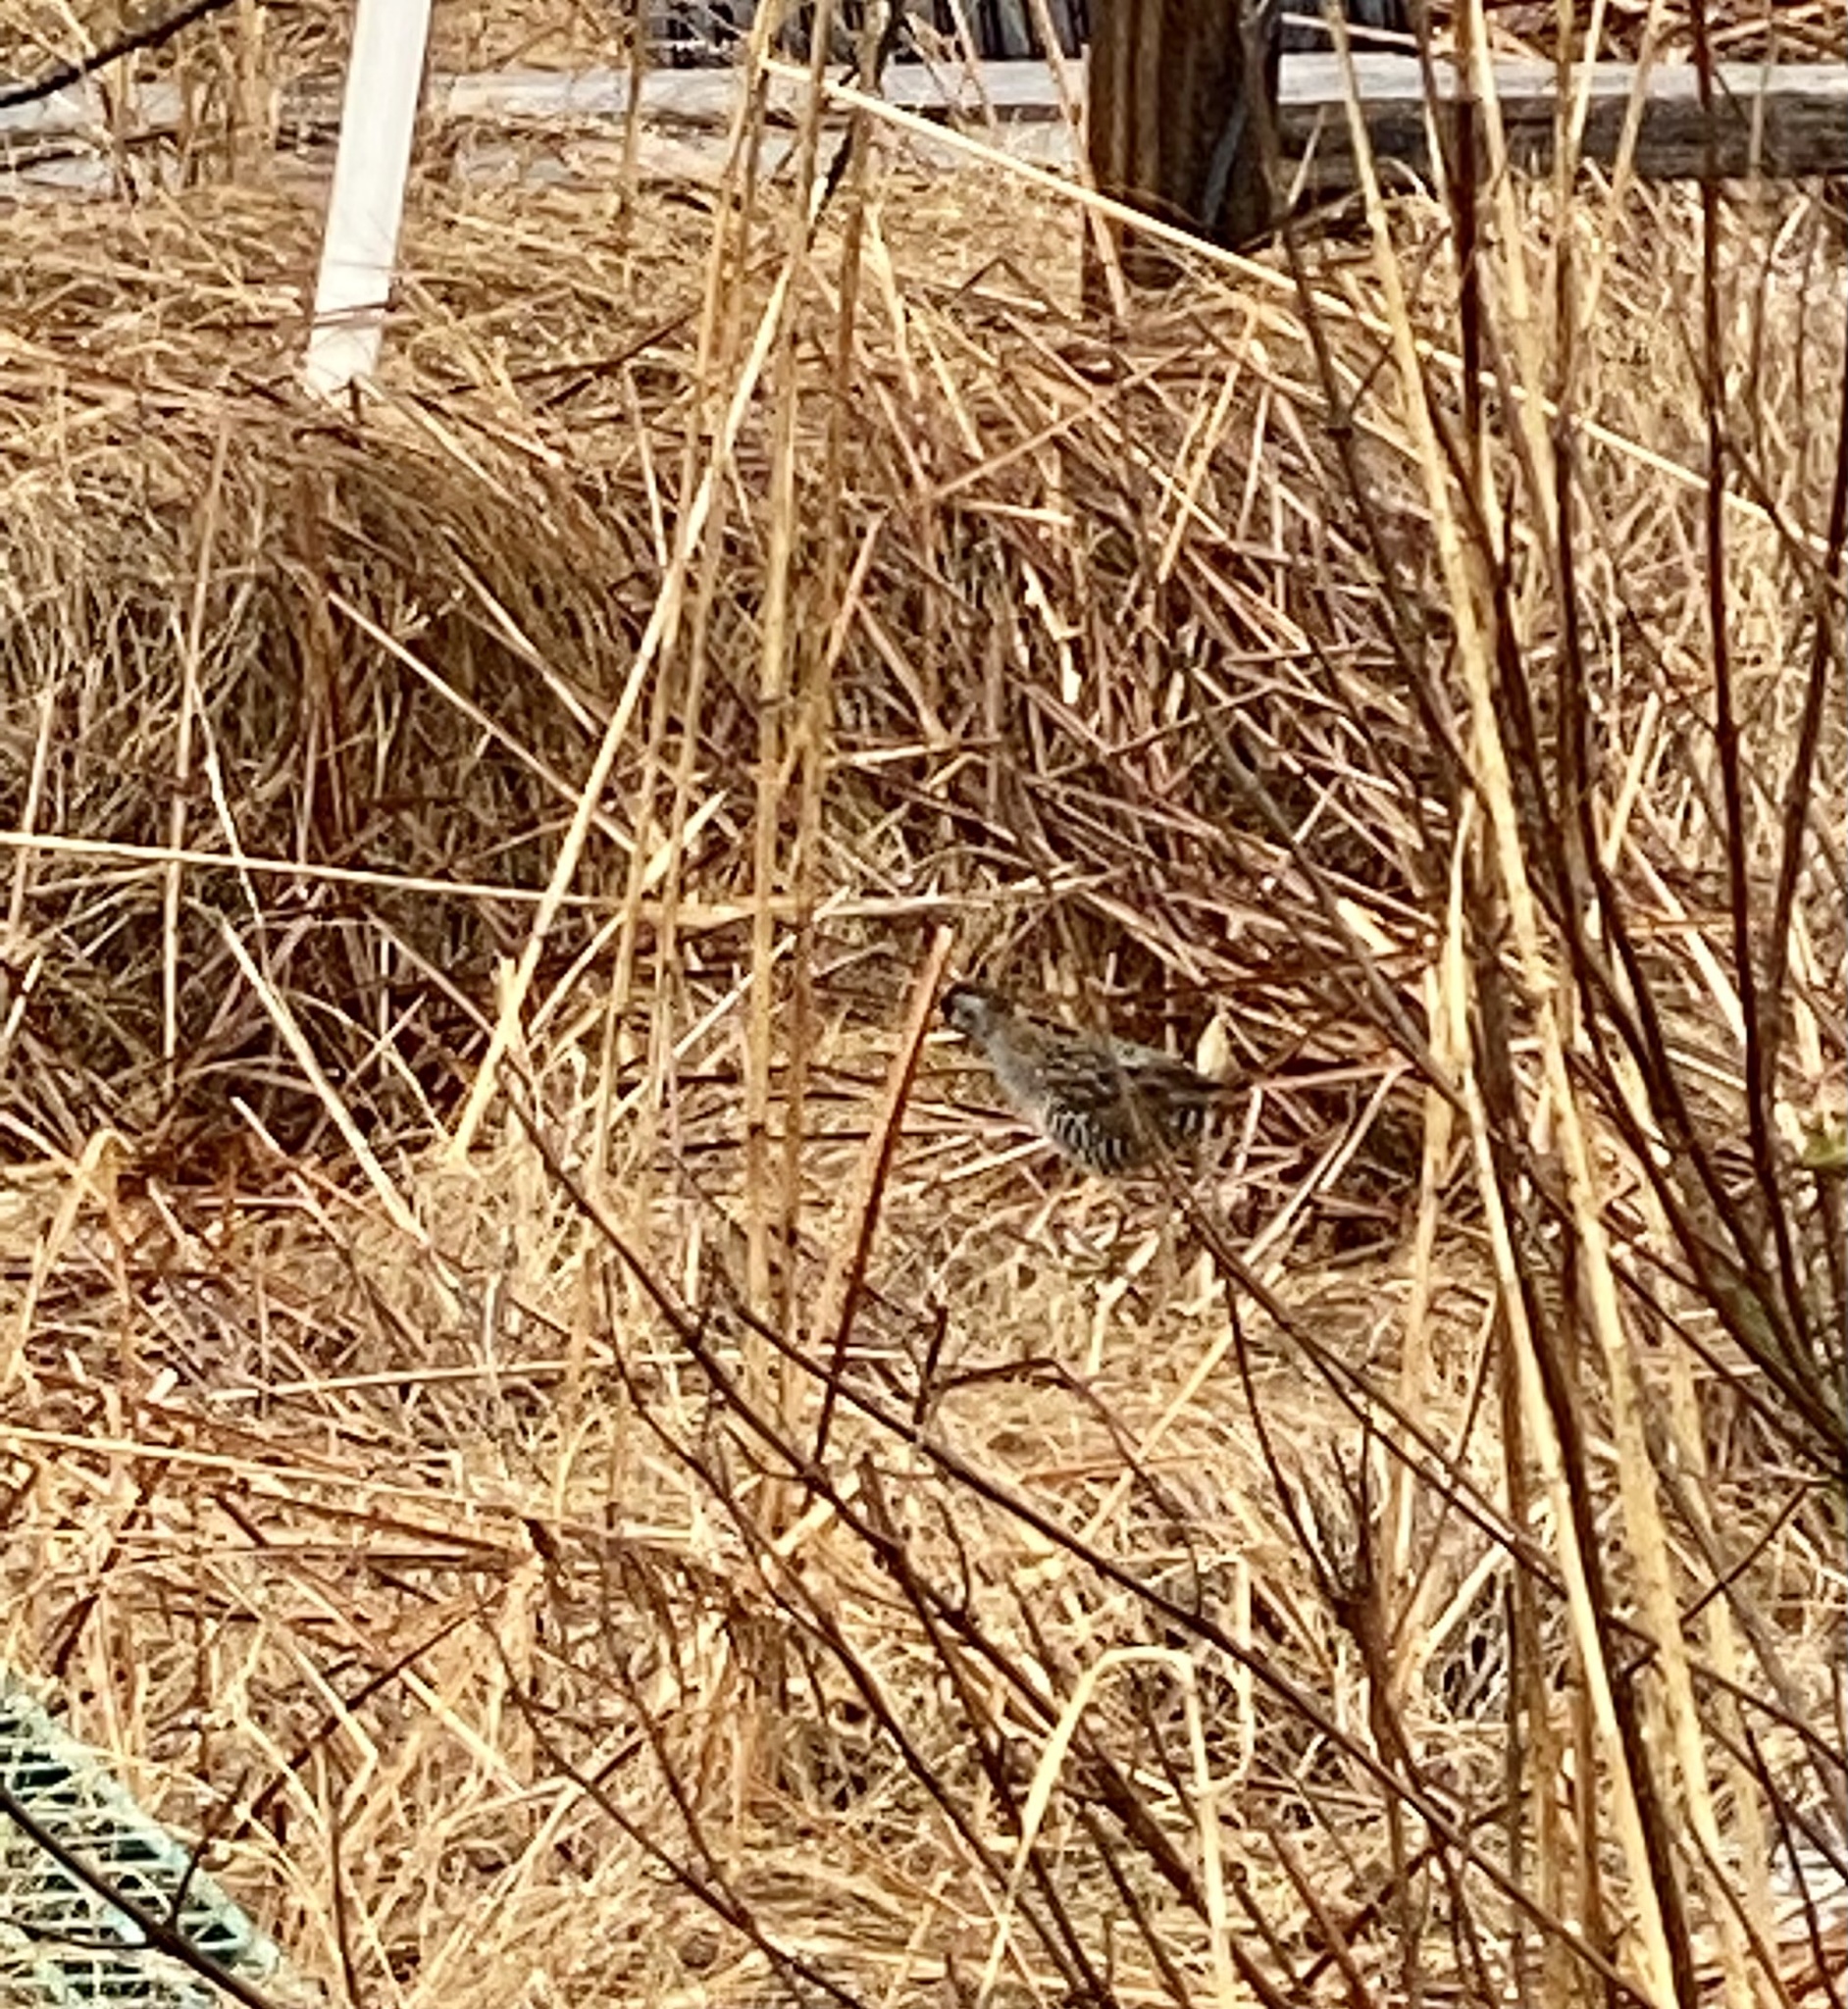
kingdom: Animalia
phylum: Chordata
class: Aves
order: Gruiformes
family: Rallidae
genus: Porzana
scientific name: Porzana carolina
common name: Sora
